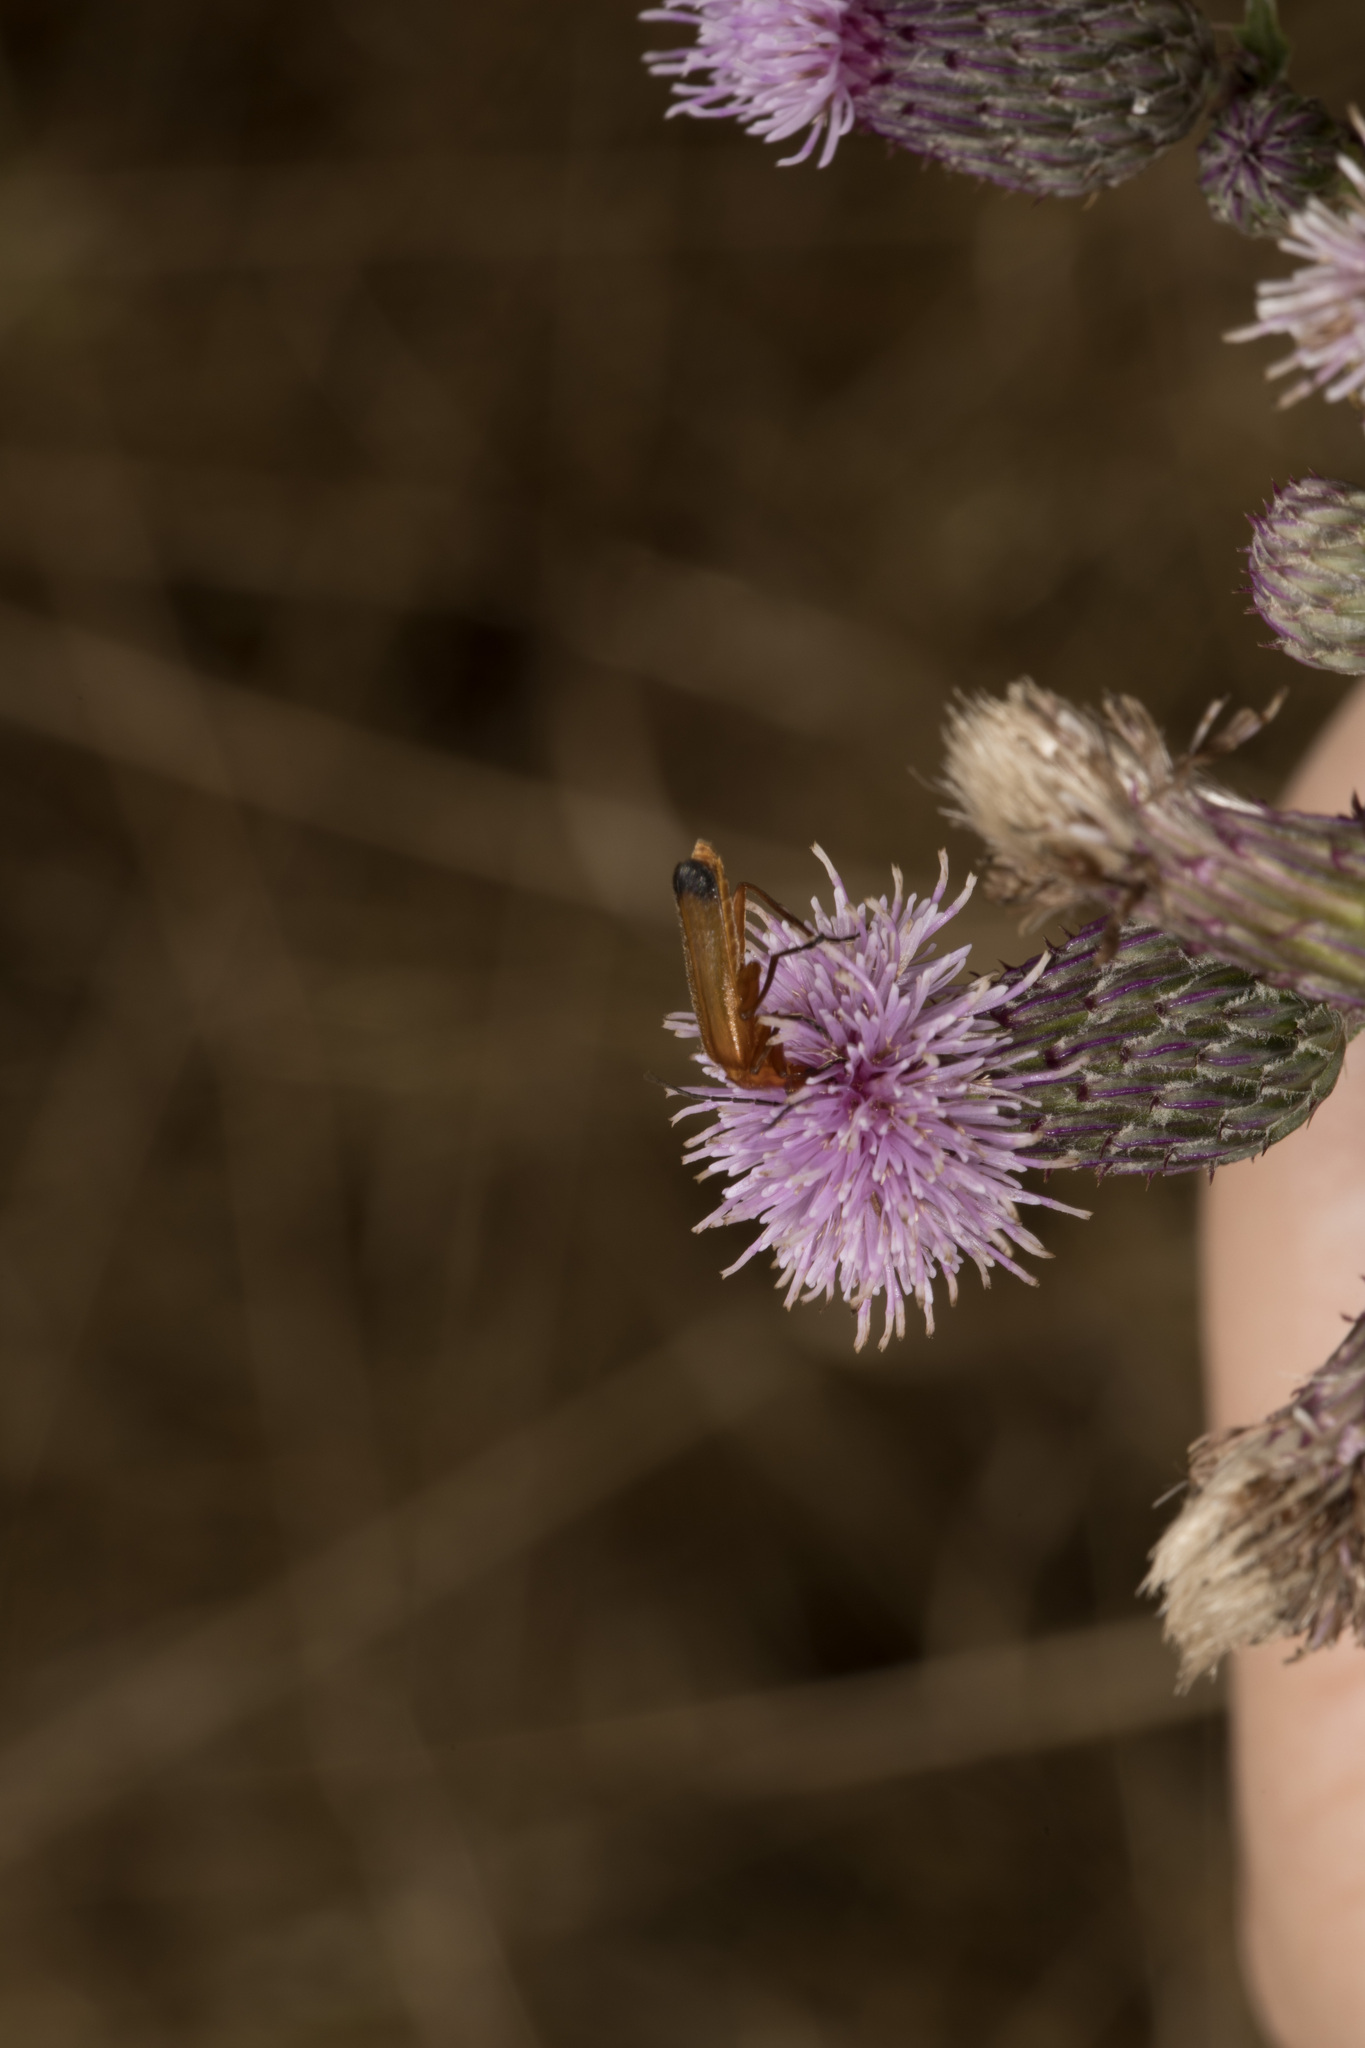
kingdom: Animalia
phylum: Arthropoda
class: Insecta
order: Coleoptera
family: Cantharidae
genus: Rhagonycha
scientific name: Rhagonycha fulva
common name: Common red soldier beetle
